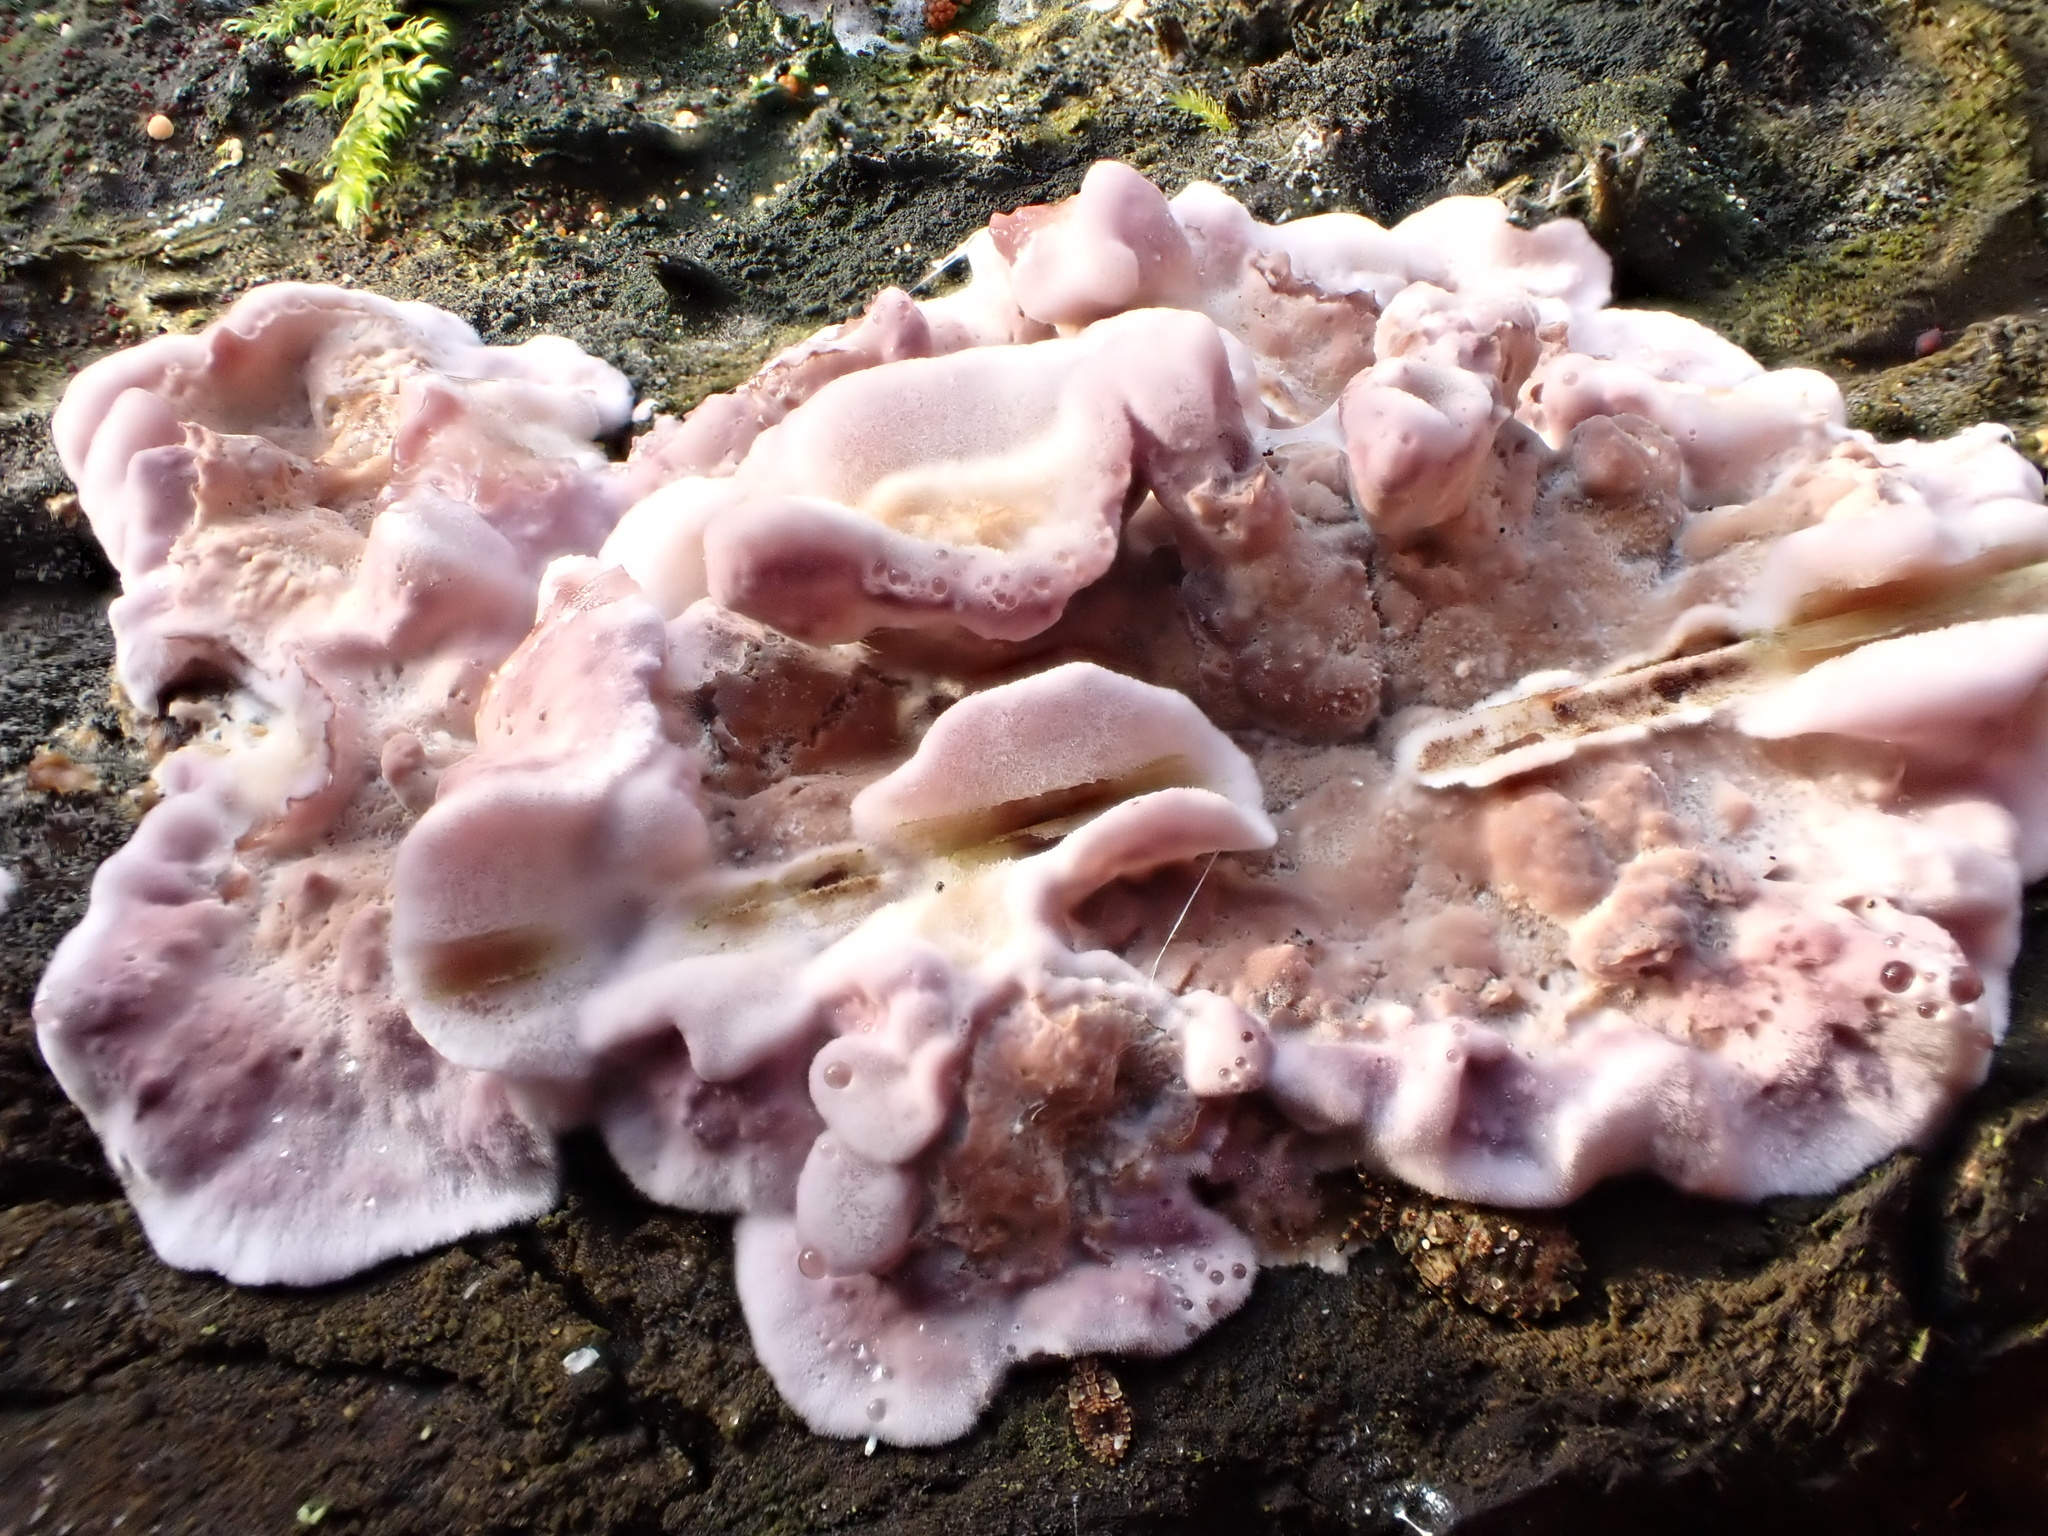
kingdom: Fungi
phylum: Basidiomycota
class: Agaricomycetes
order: Agaricales
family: Cyphellaceae
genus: Chondrostereum
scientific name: Chondrostereum purpureum
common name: Silver leaf disease
